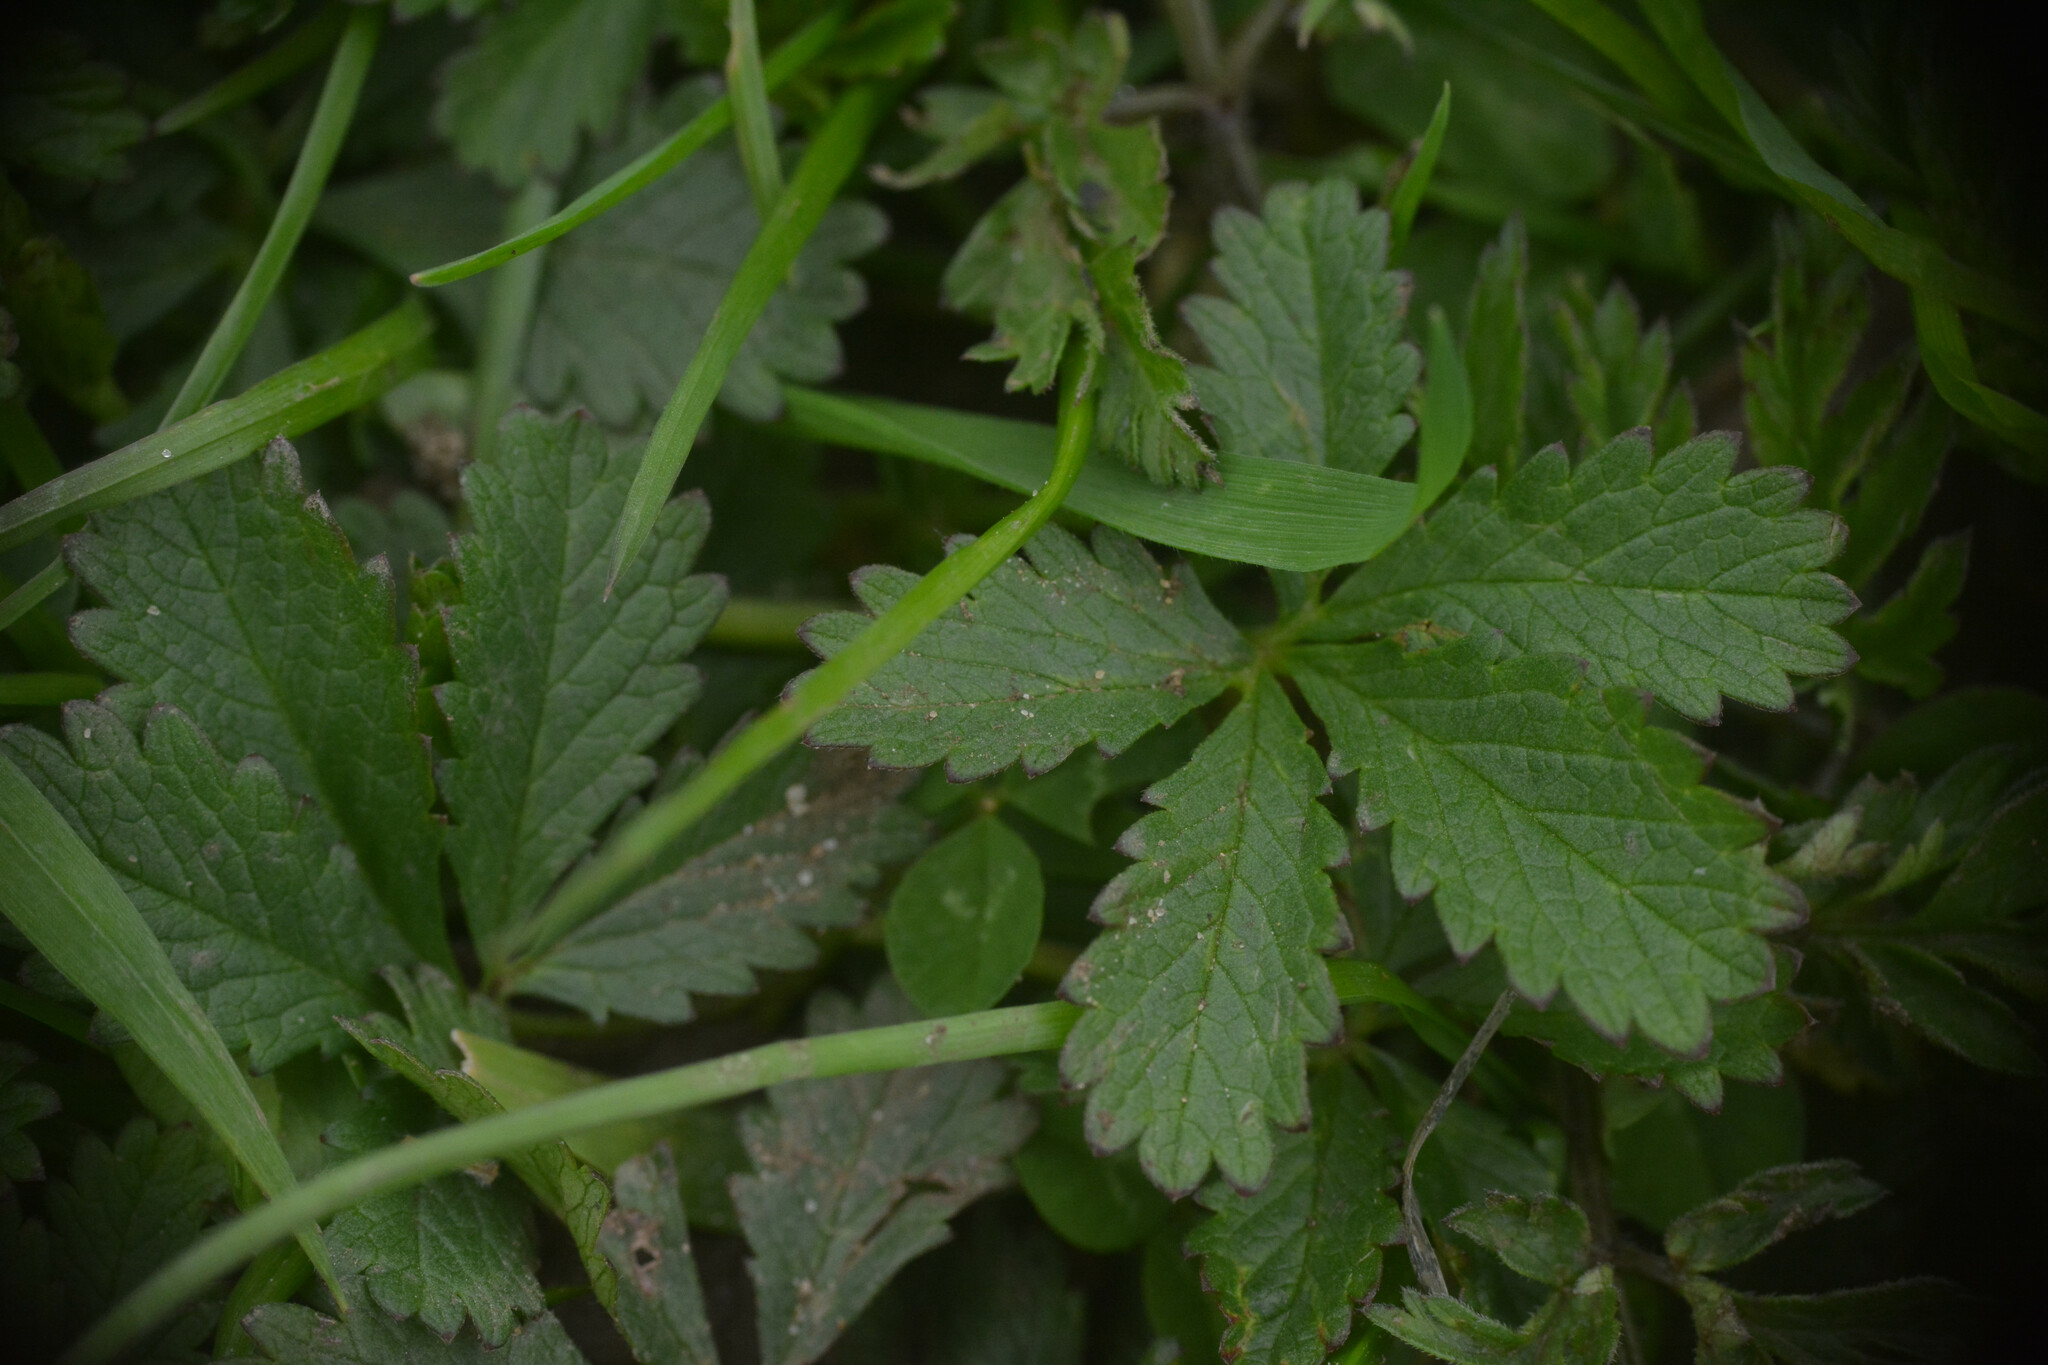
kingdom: Plantae
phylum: Tracheophyta
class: Magnoliopsida
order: Rosales
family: Rosaceae
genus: Potentilla
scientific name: Potentilla reptans
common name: Creeping cinquefoil
